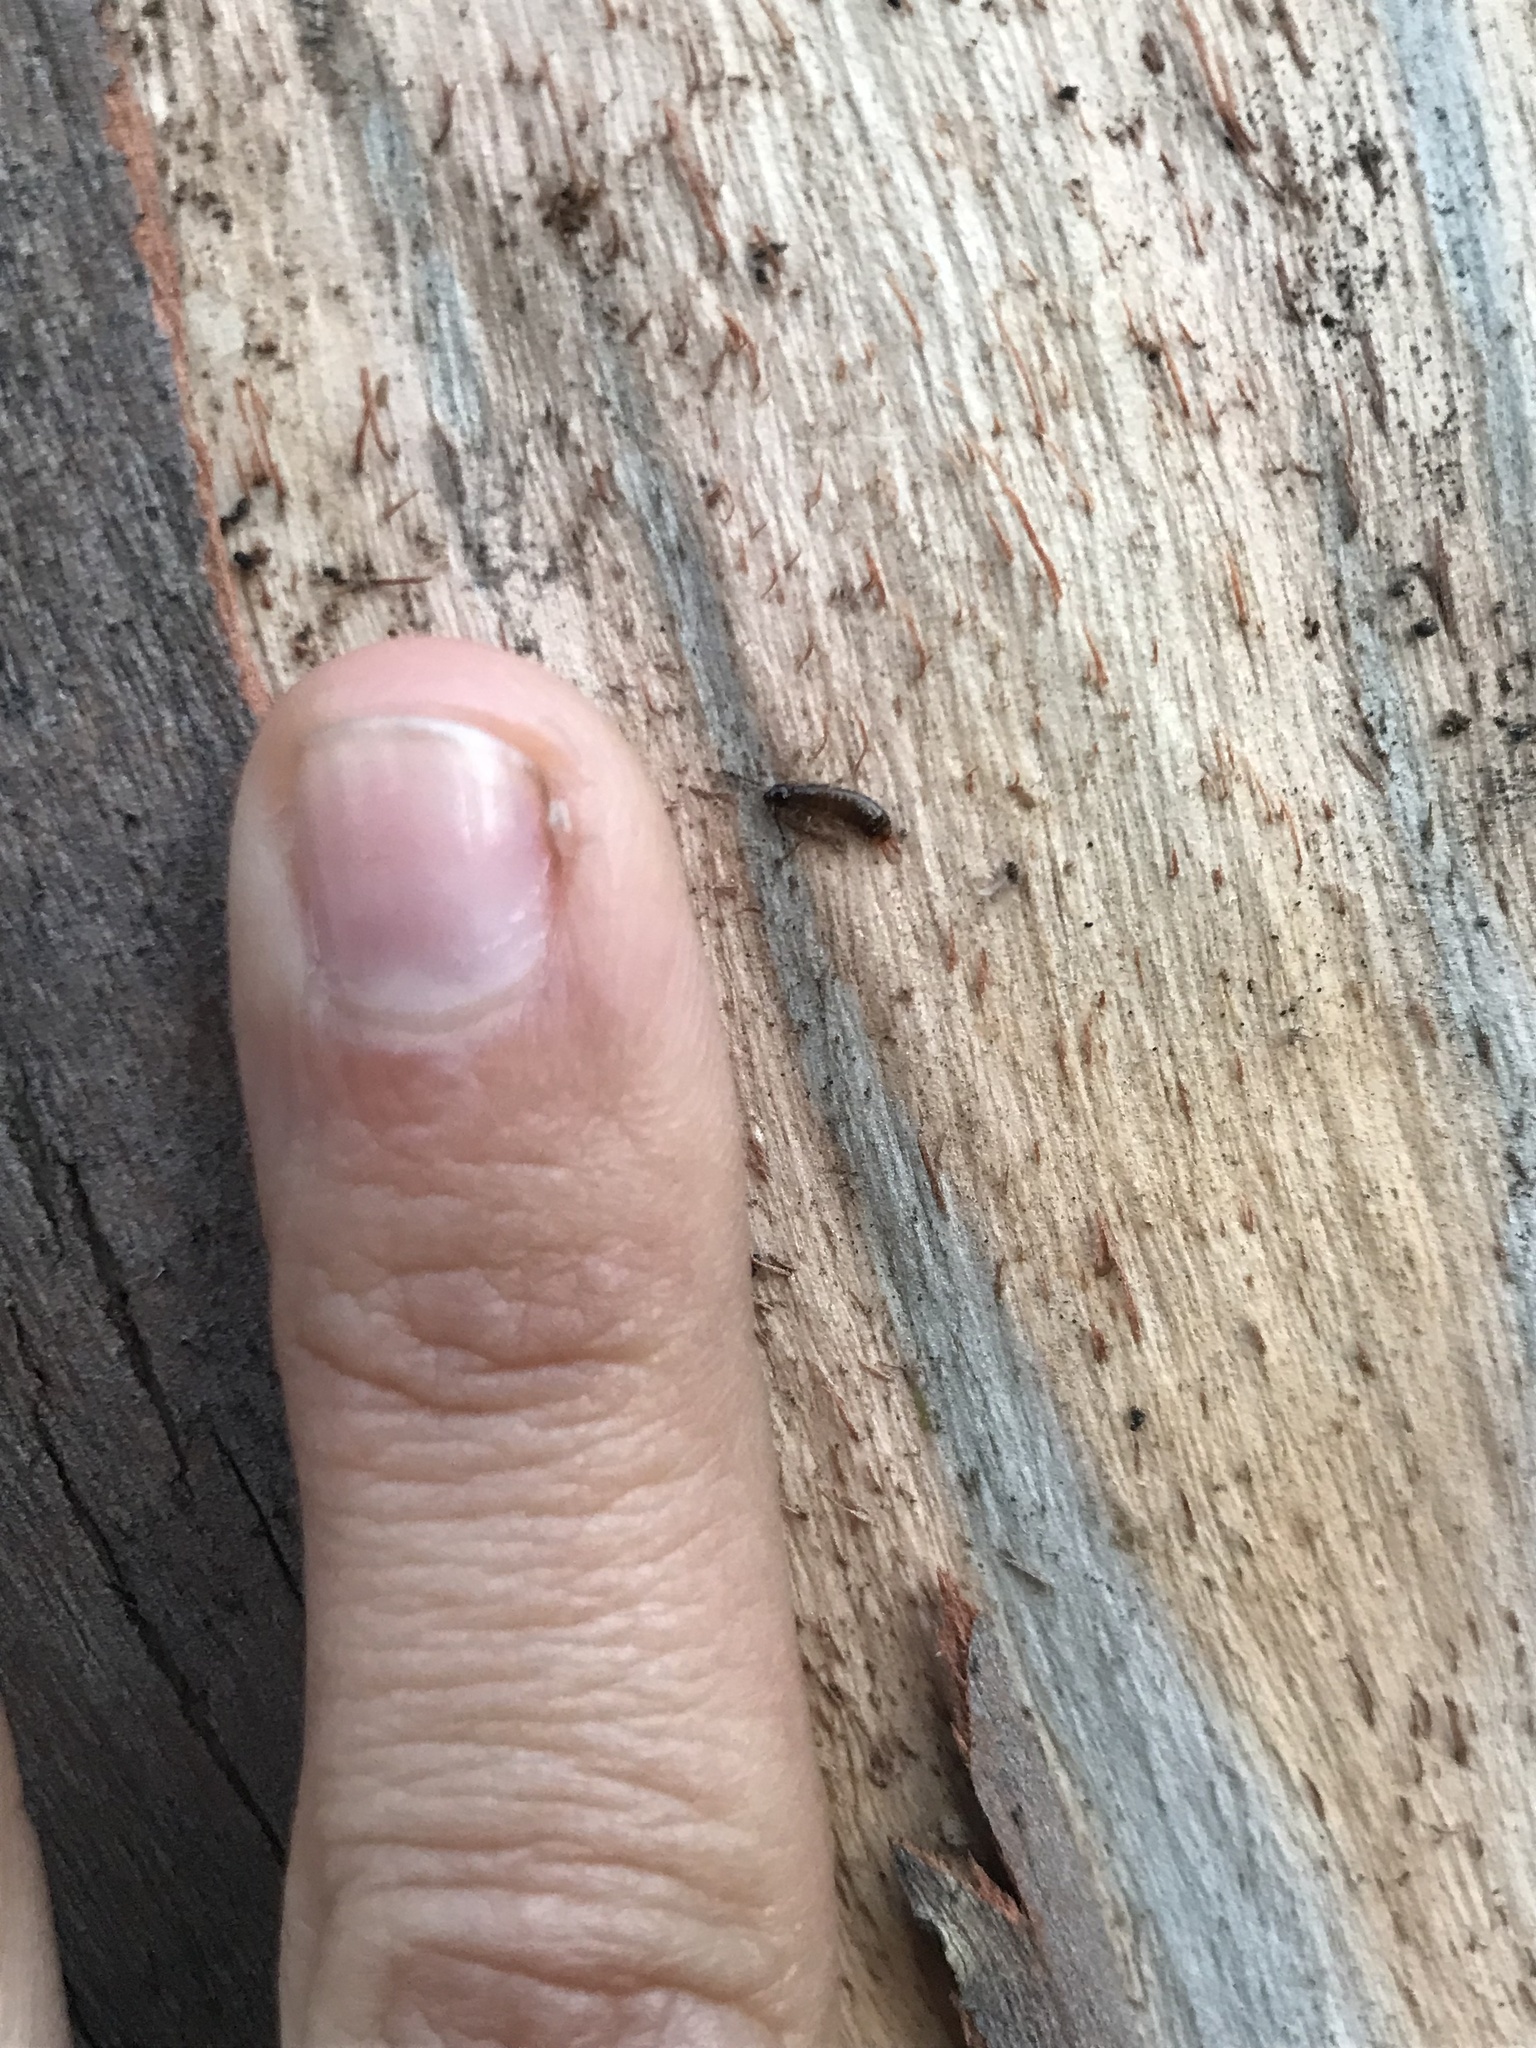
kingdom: Animalia
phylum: Arthropoda
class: Insecta
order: Dermaptera
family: Anisolabididae
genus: Euborellia
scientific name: Euborellia annulipes
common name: Ringlegged earwig
